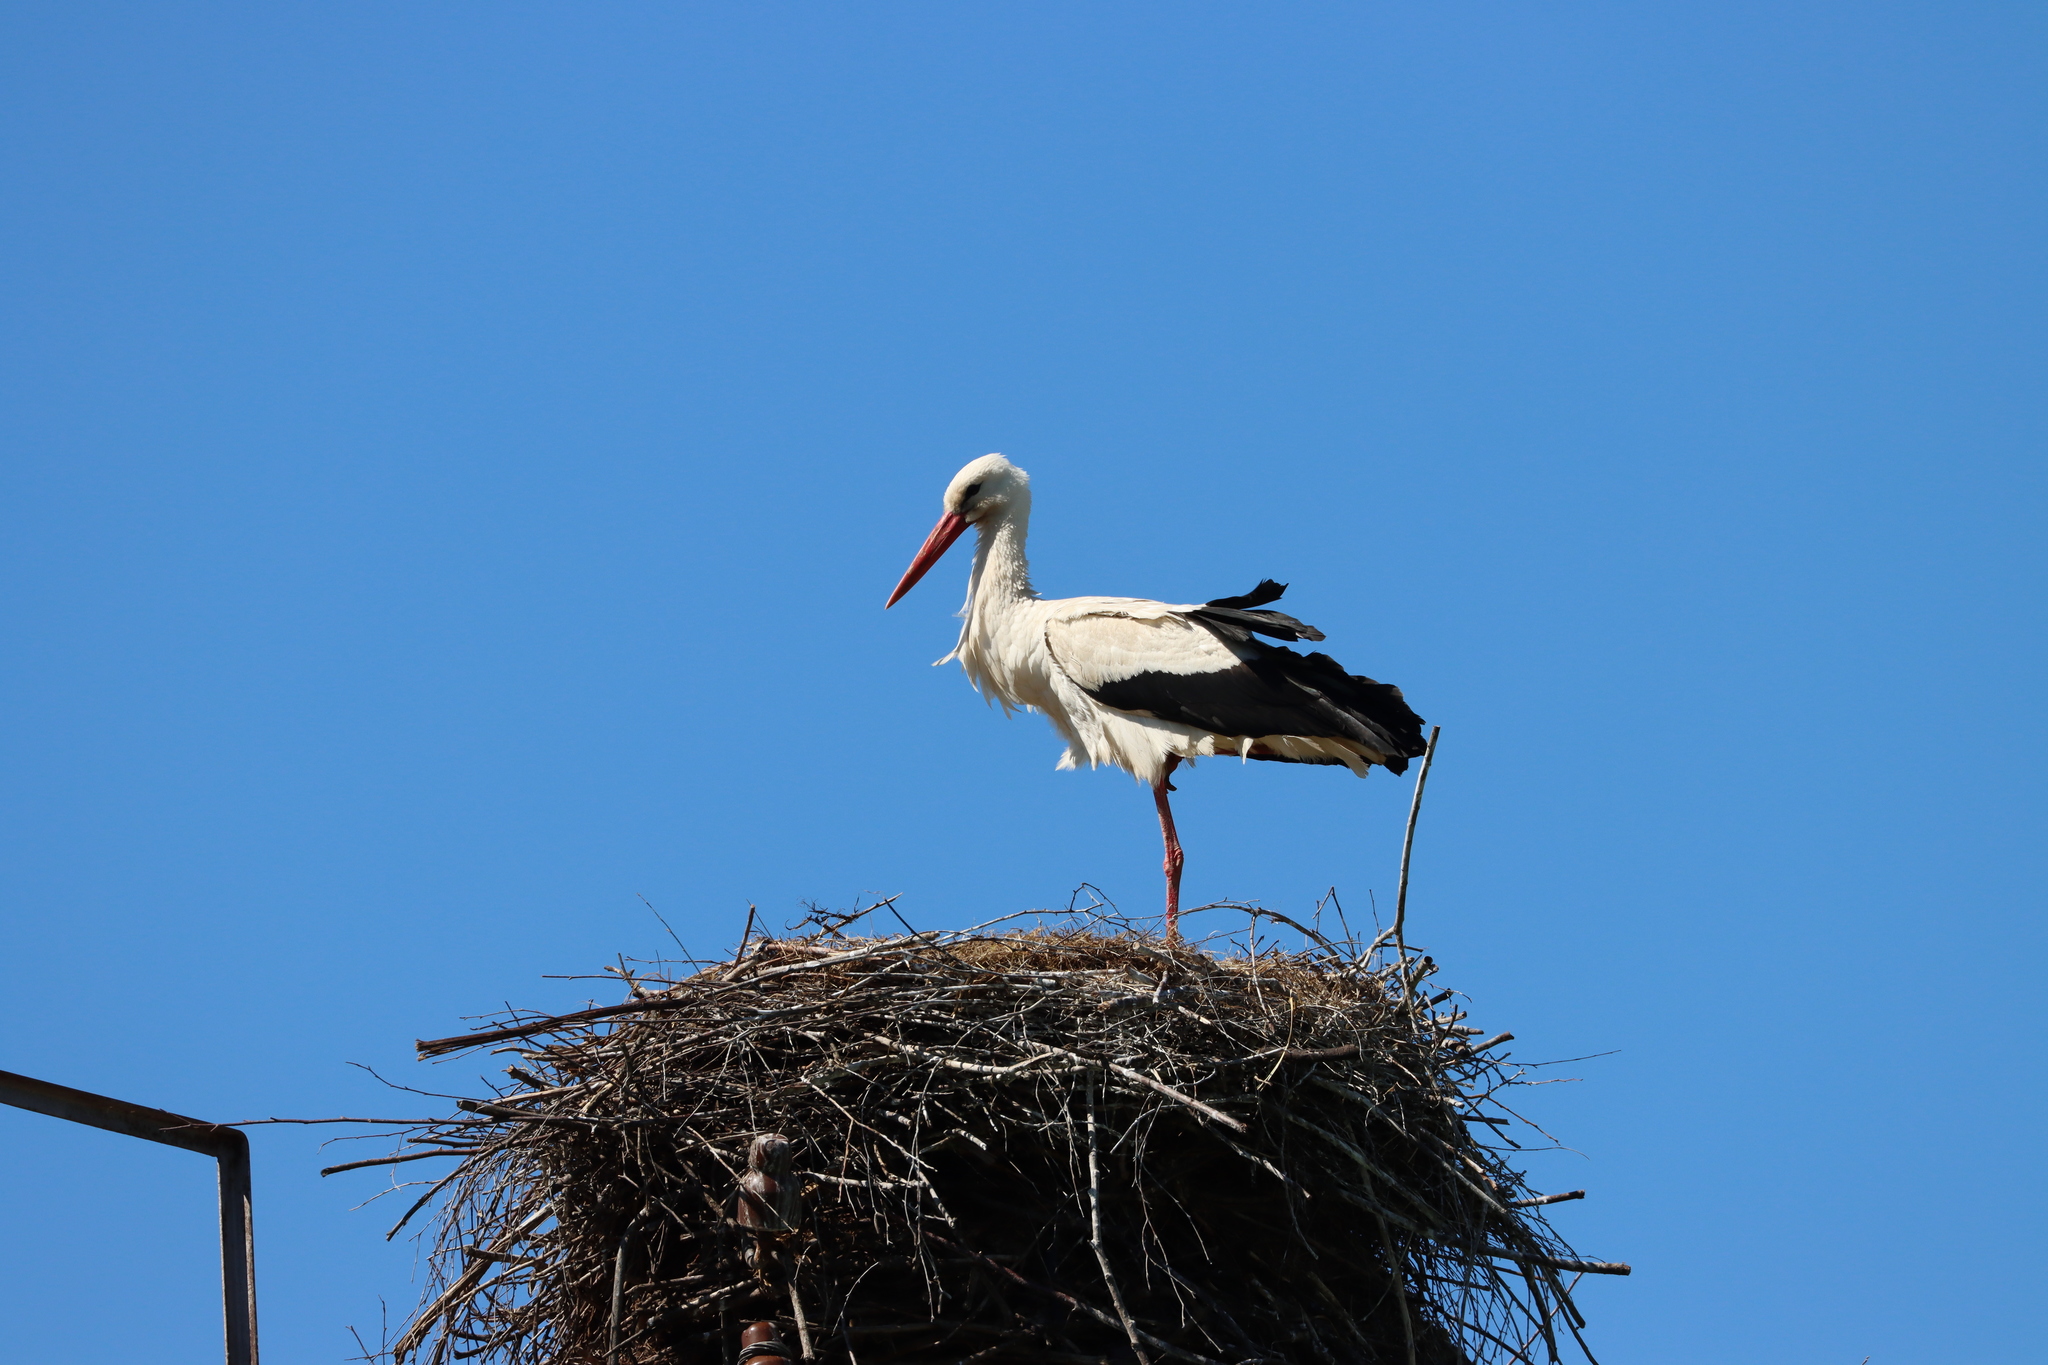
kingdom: Animalia
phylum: Chordata
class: Aves
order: Ciconiiformes
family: Ciconiidae
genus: Ciconia
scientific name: Ciconia ciconia
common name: White stork
